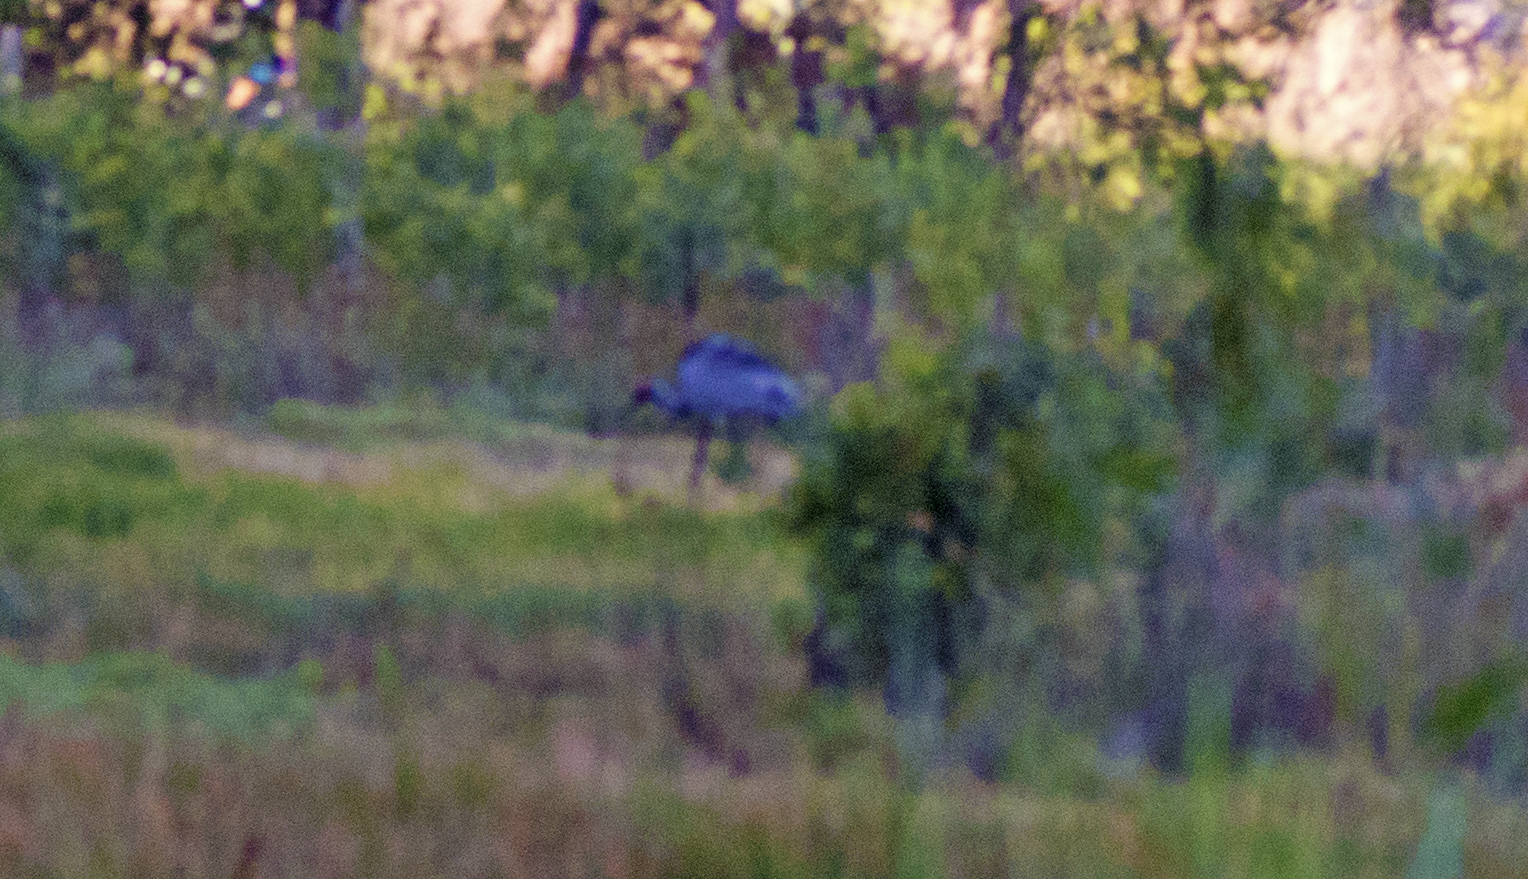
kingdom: Animalia
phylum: Chordata
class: Aves
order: Gruiformes
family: Gruidae
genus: Grus
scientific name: Grus rubicunda
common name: Brolga
